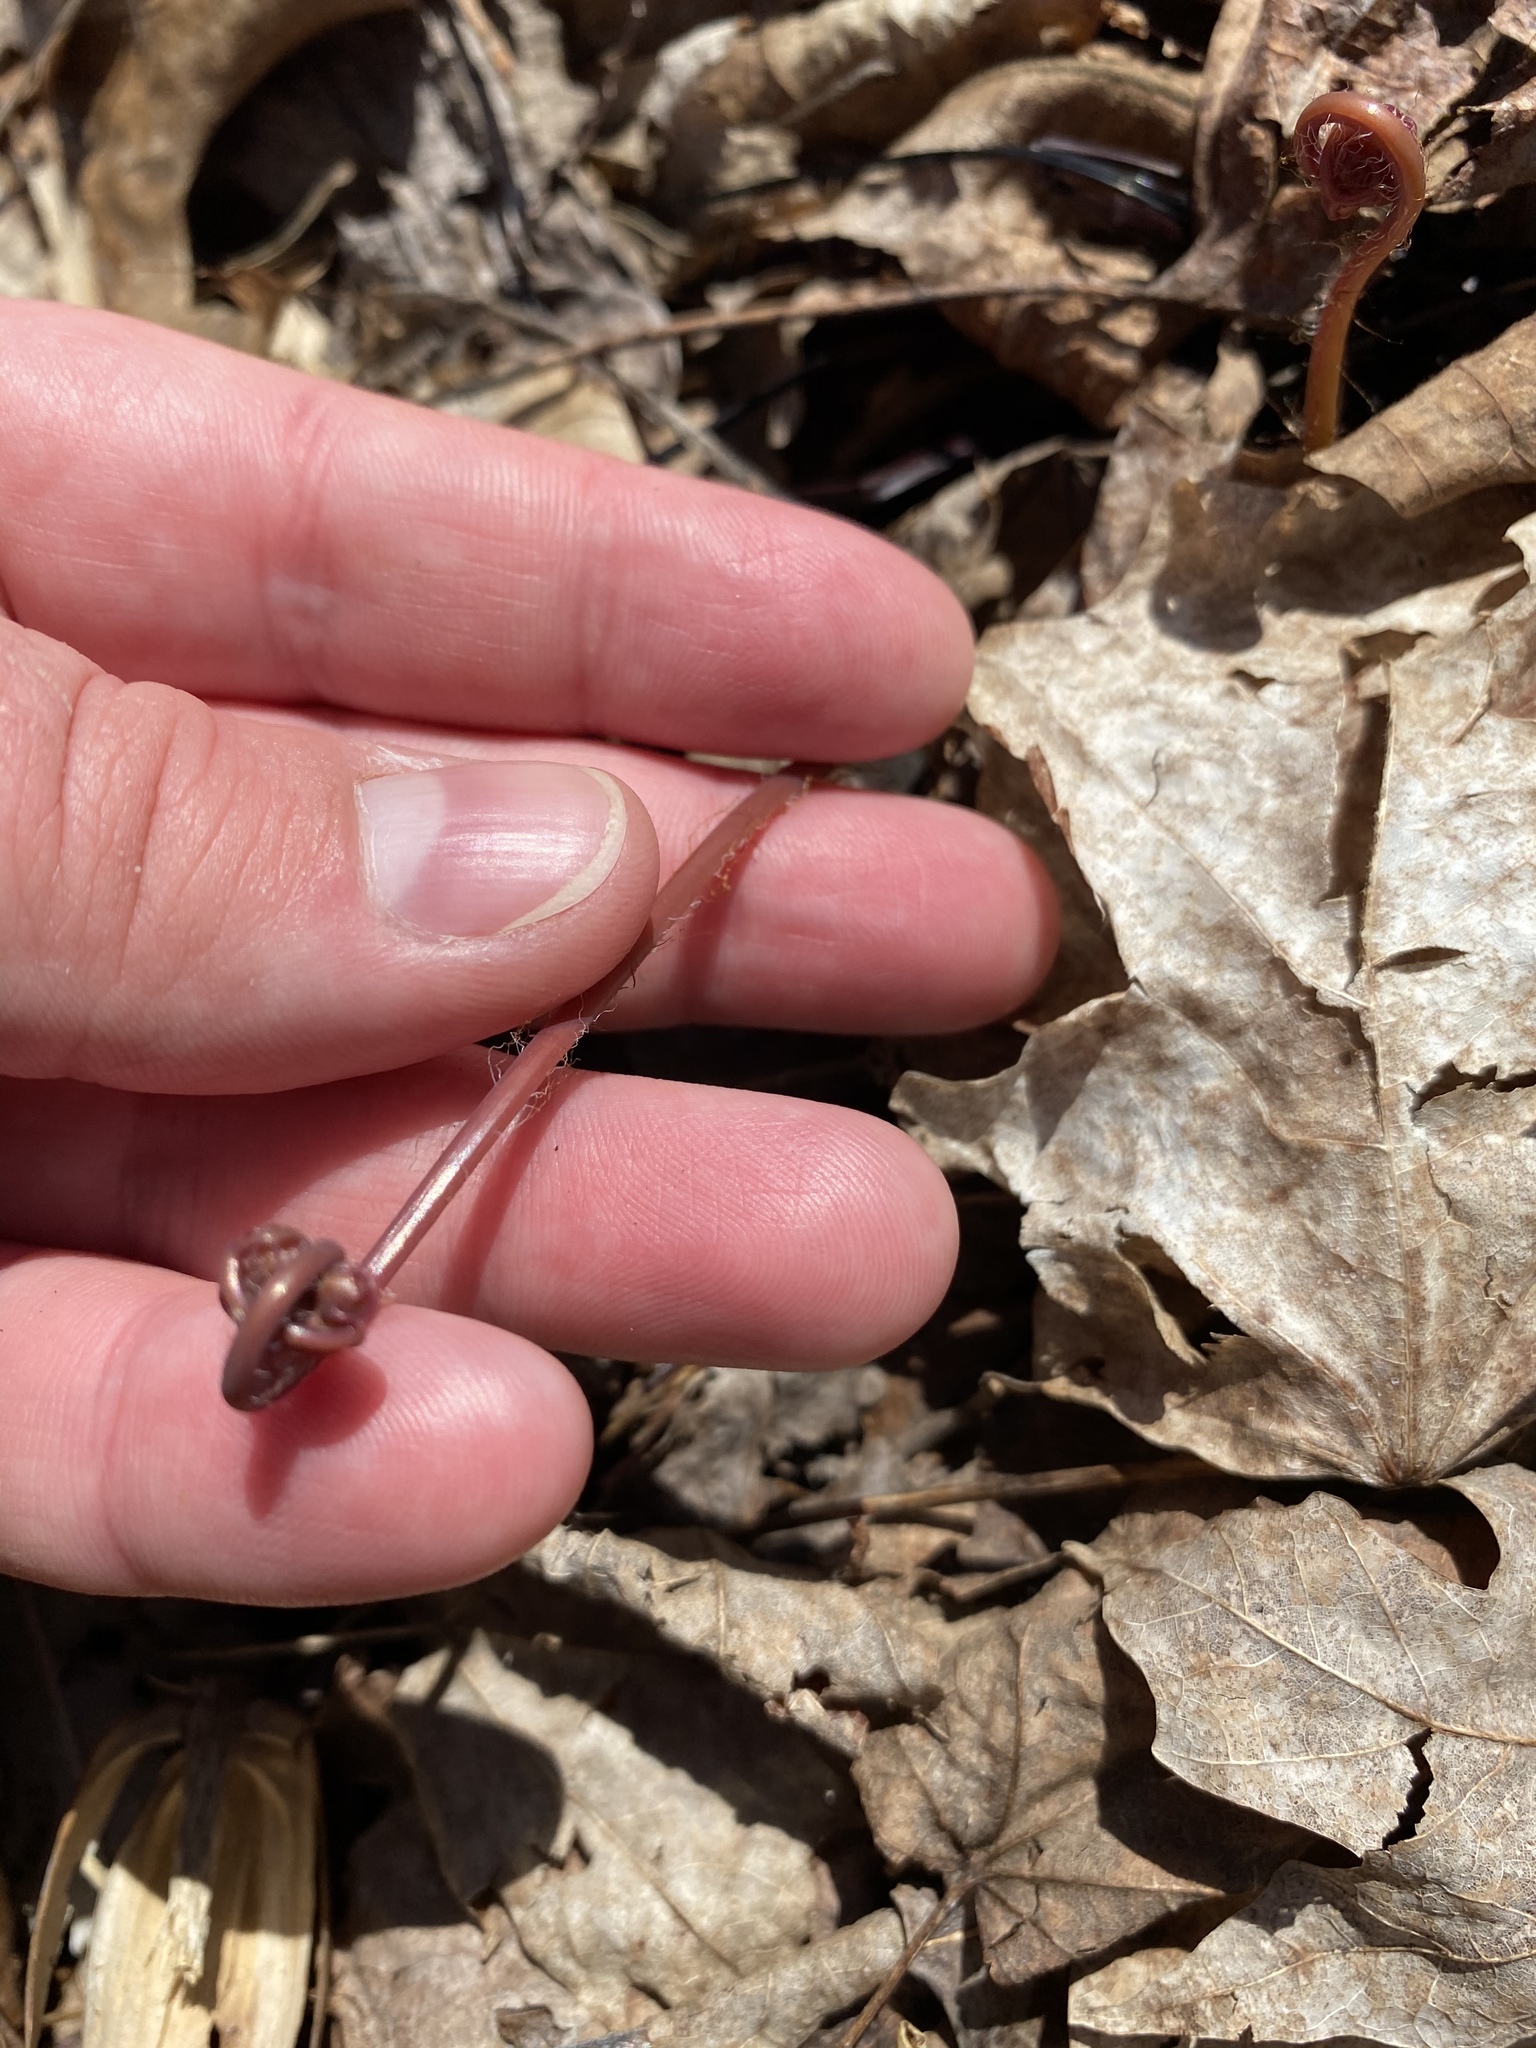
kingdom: Plantae
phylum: Tracheophyta
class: Polypodiopsida
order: Polypodiales
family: Pteridaceae
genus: Adiantum
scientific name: Adiantum pedatum
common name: Five-finger fern
